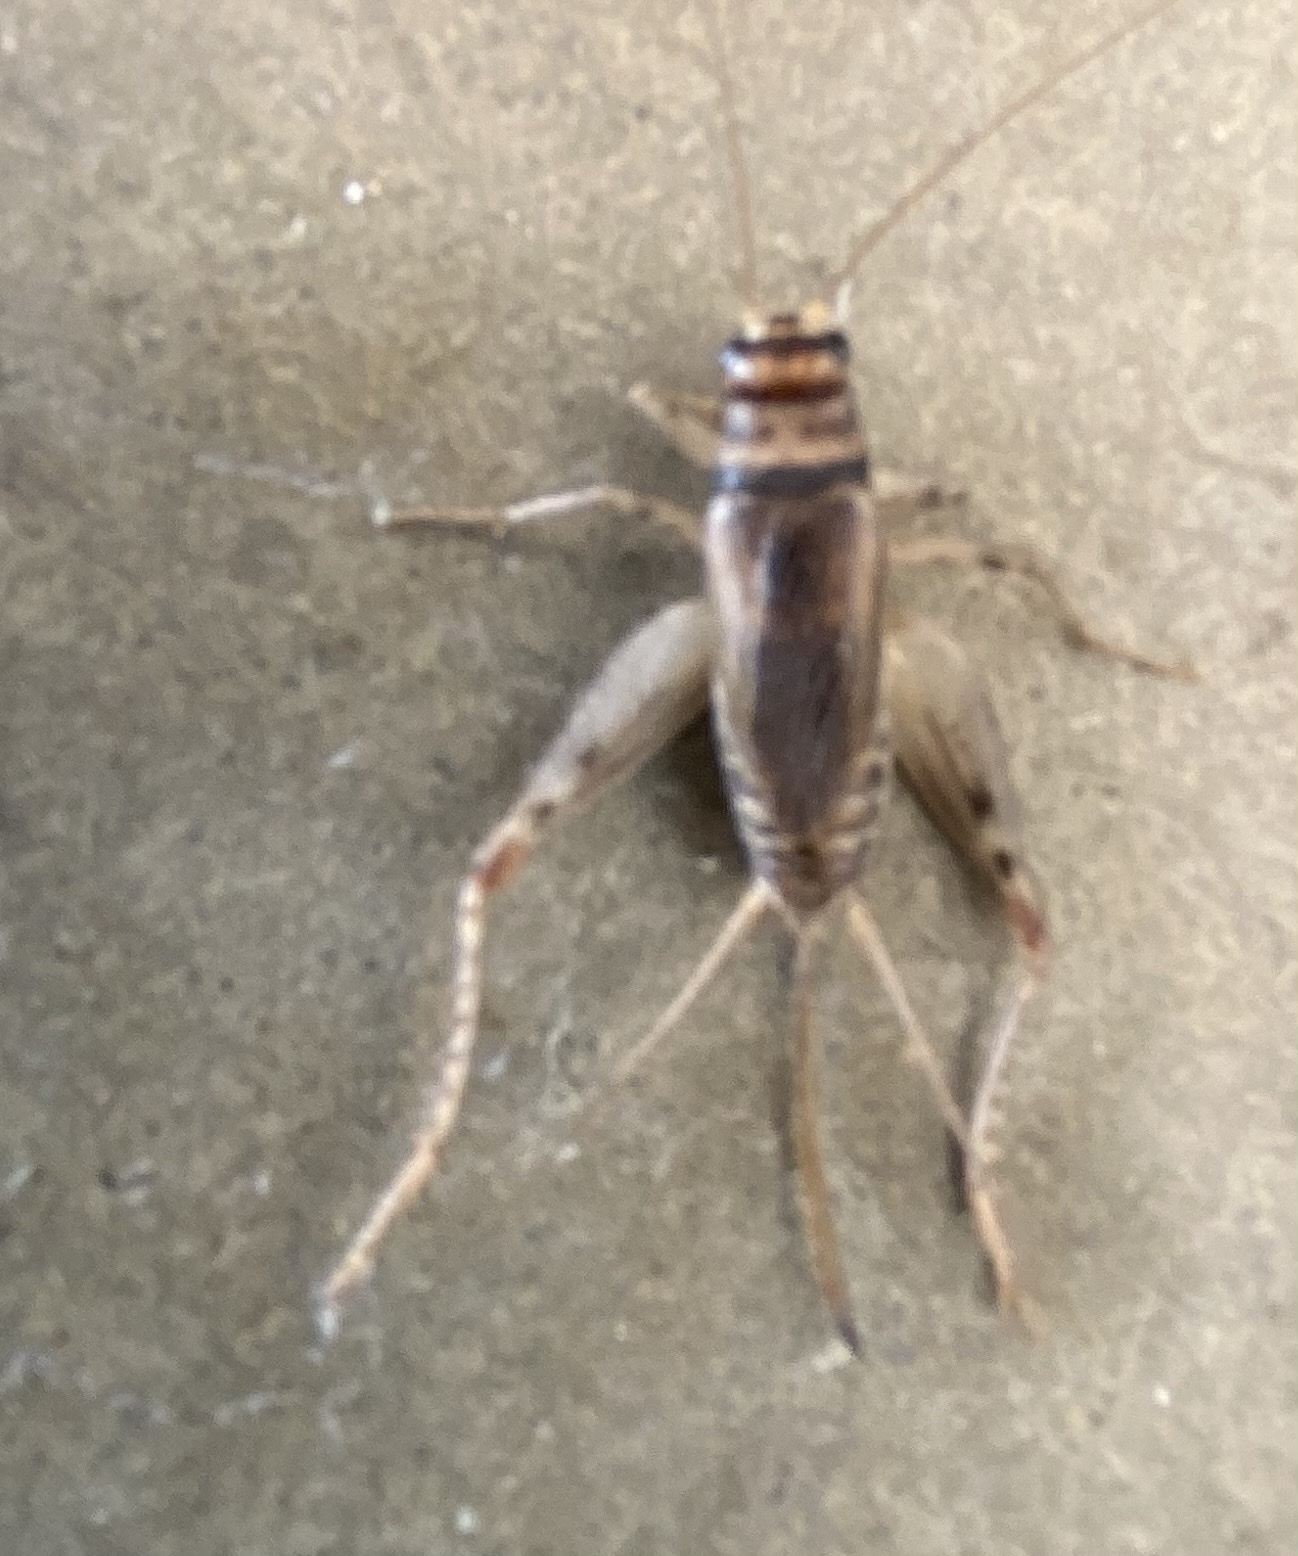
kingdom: Animalia
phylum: Arthropoda
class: Insecta
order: Orthoptera
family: Gryllidae
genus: Gryllodes
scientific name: Gryllodes sigillatus
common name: Tropical house cricket
